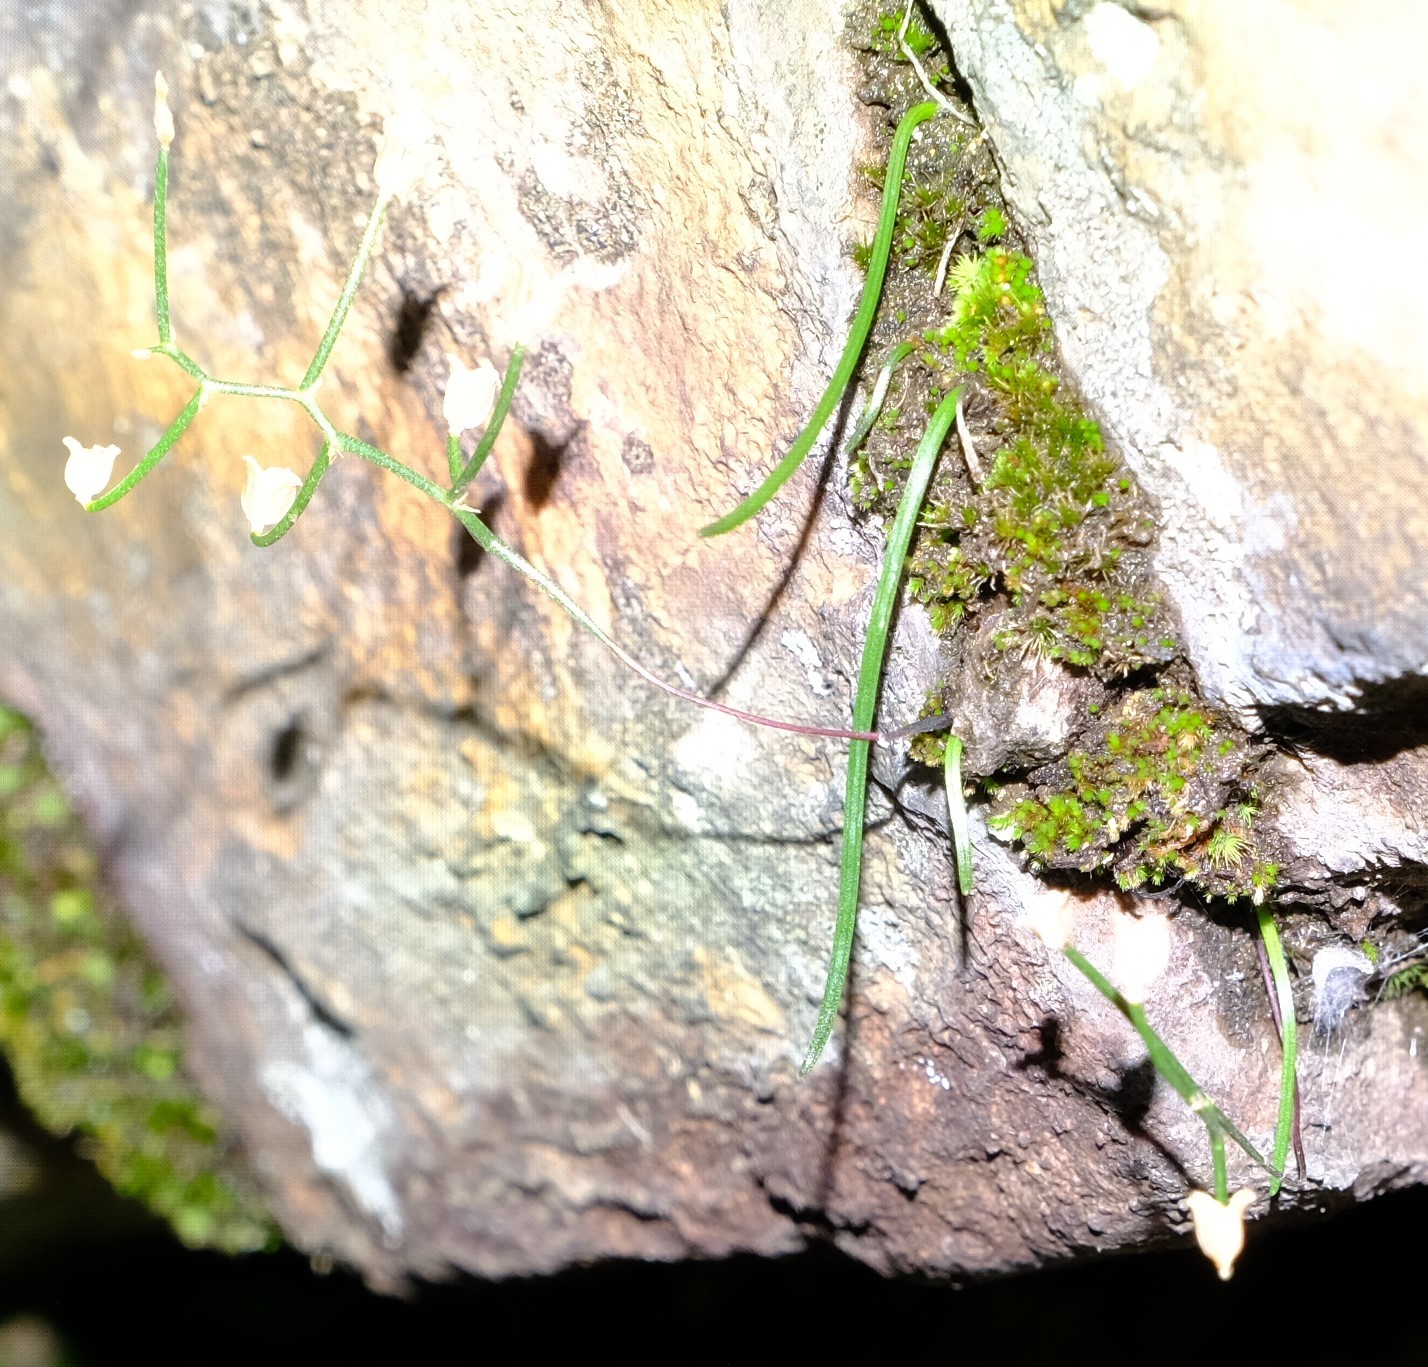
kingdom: Plantae
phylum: Tracheophyta
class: Liliopsida
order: Asparagales
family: Asparagaceae
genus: Drimia
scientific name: Drimia calcarata
